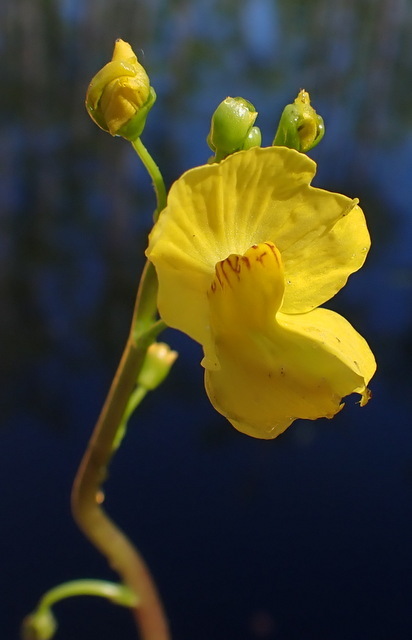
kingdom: Plantae
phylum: Tracheophyta
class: Magnoliopsida
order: Lamiales
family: Lentibulariaceae
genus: Utricularia
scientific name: Utricularia floridana
